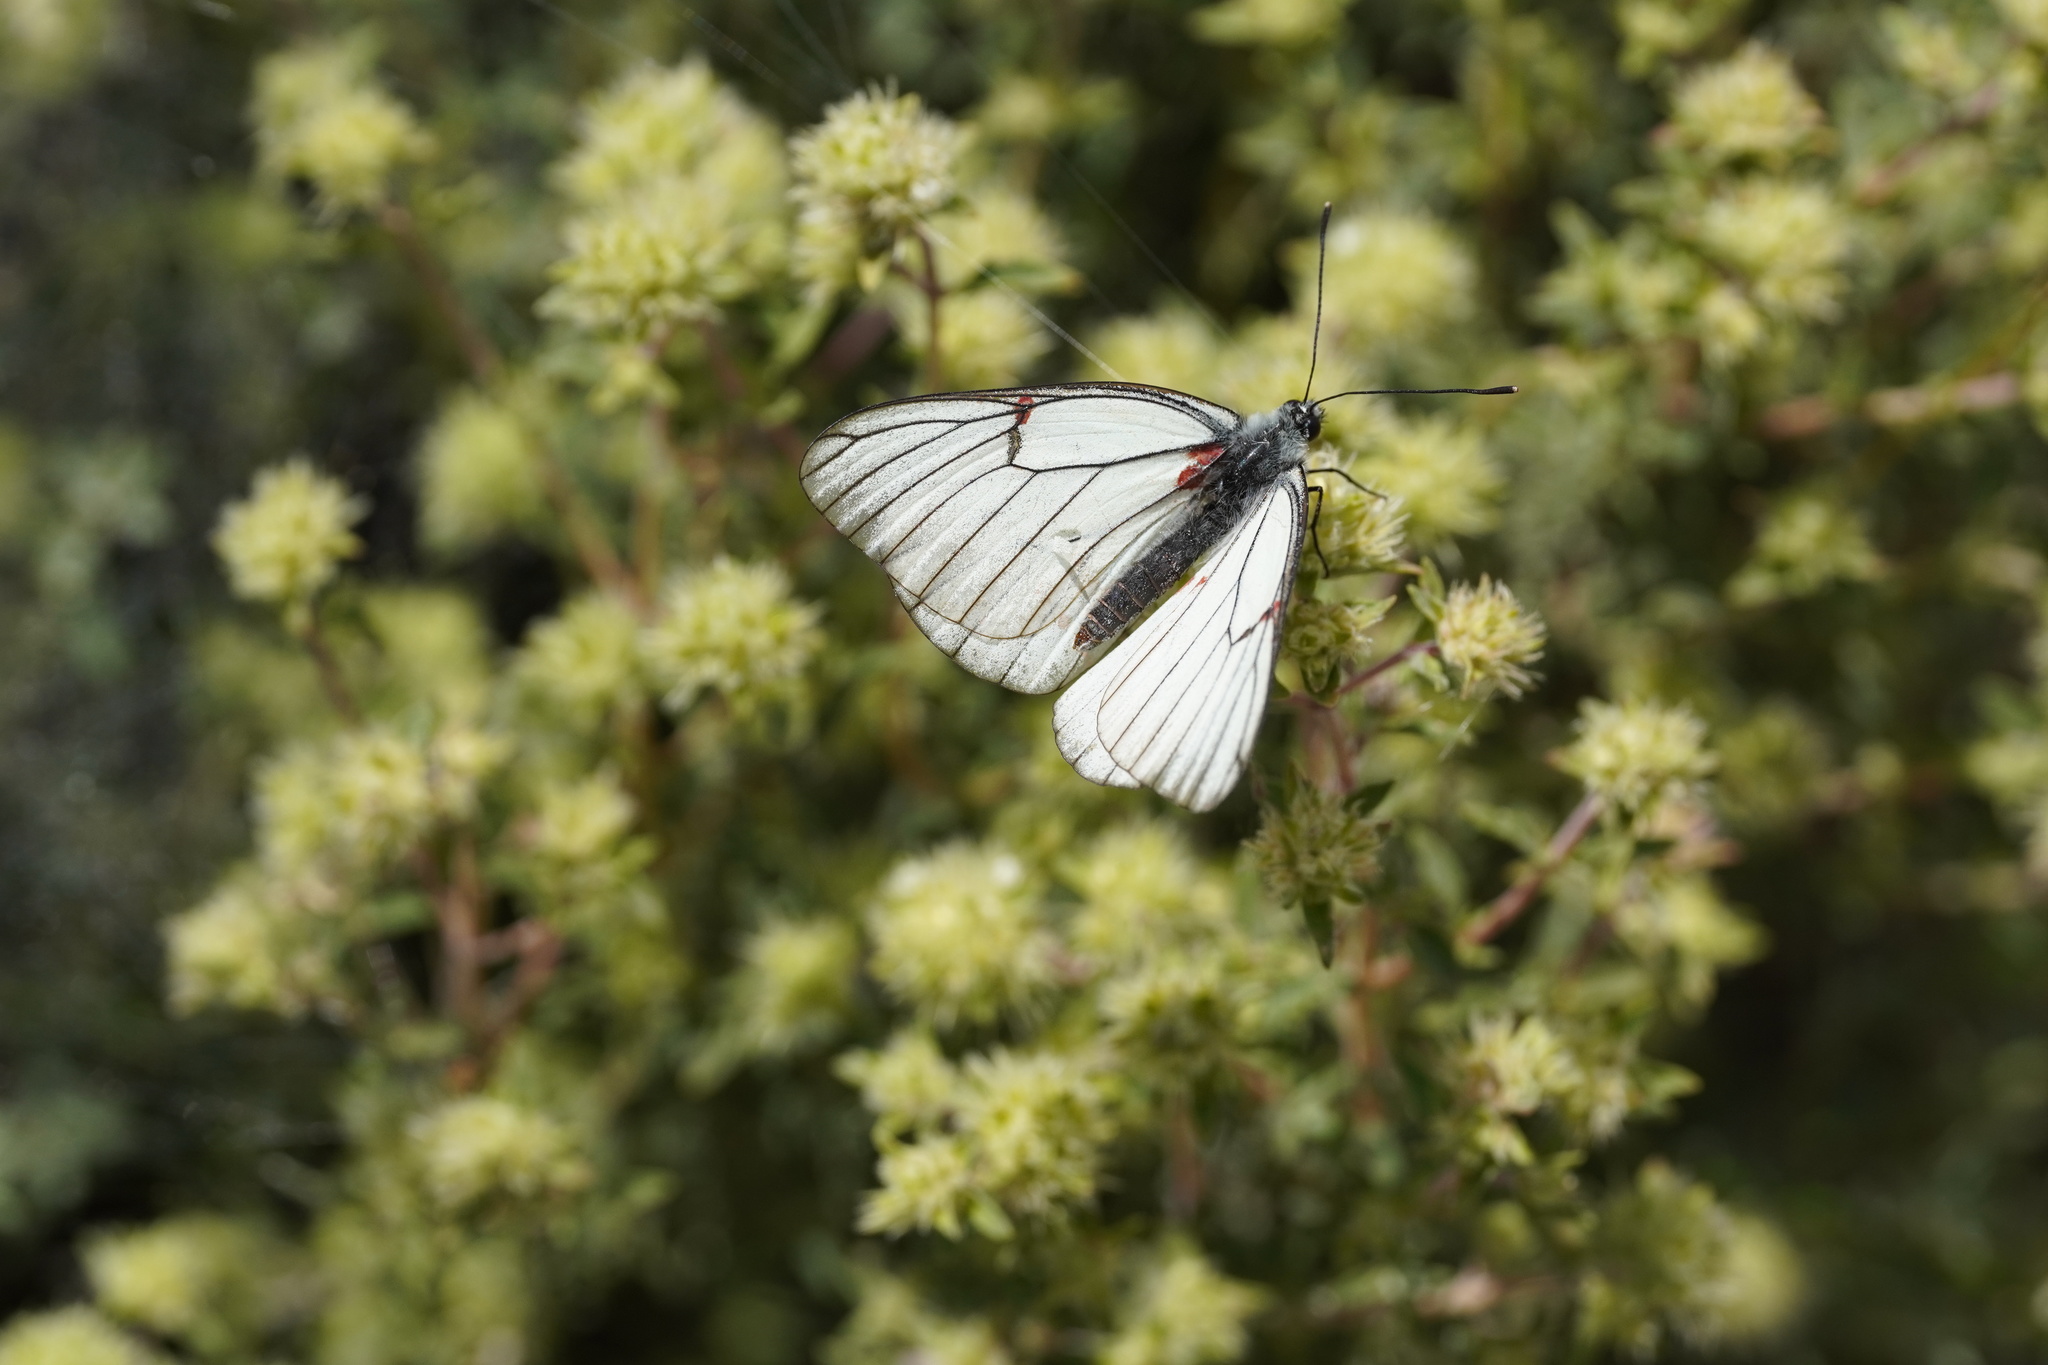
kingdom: Animalia
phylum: Arthropoda
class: Insecta
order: Lepidoptera
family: Pieridae
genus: Aporia
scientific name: Aporia crataegi
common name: Black-veined white
